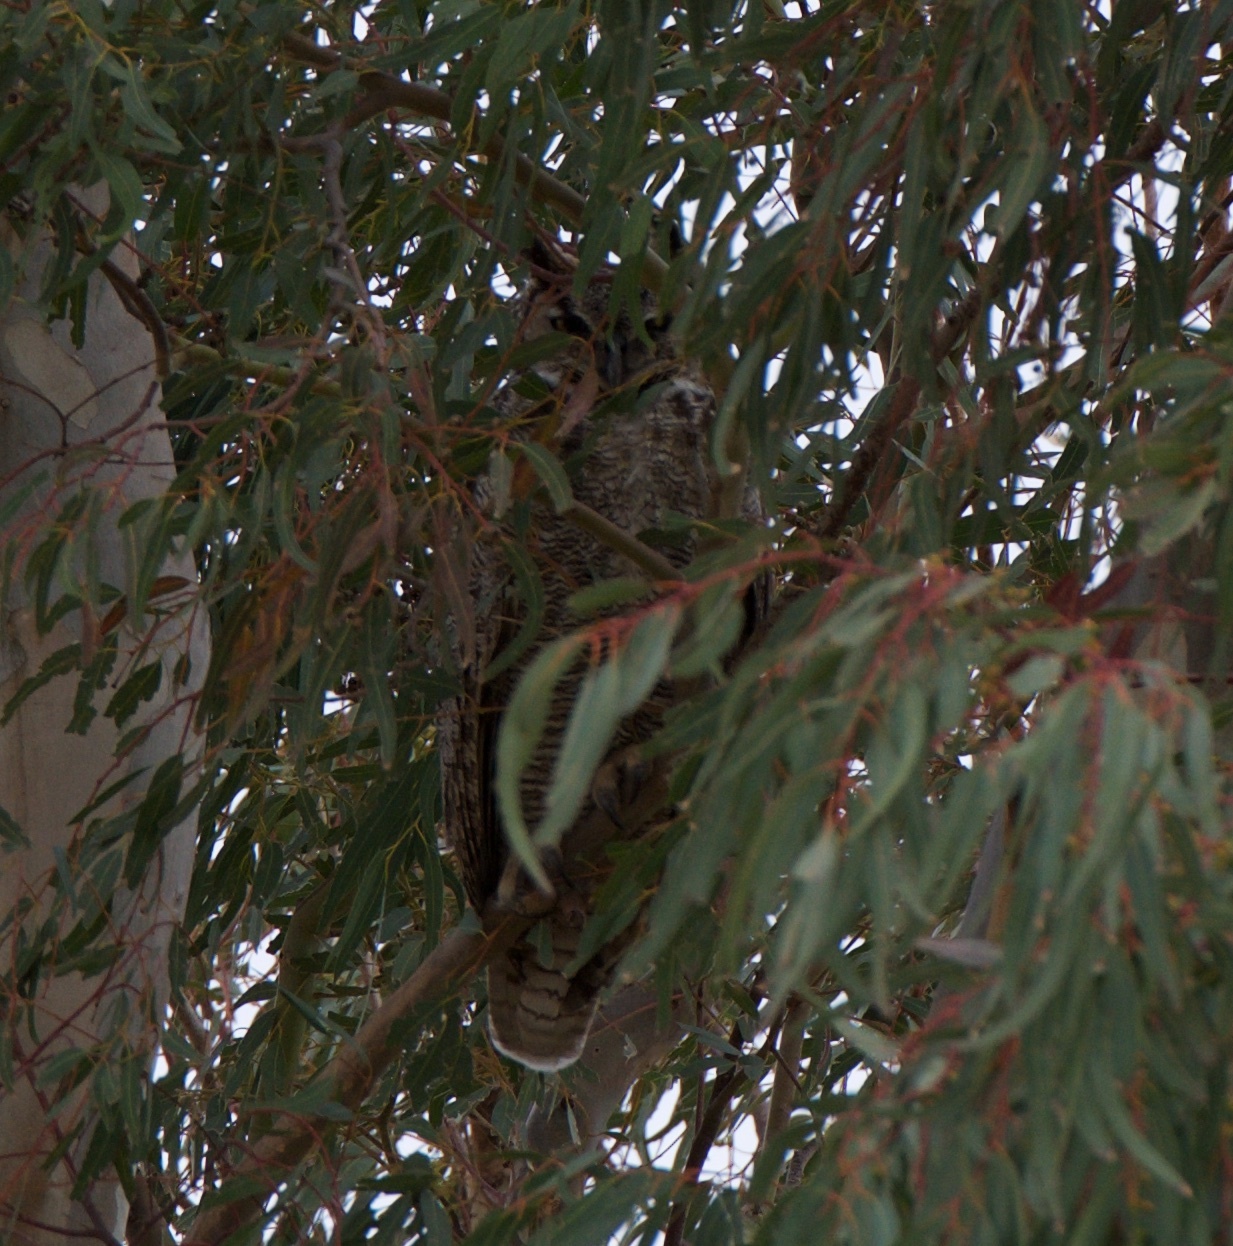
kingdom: Animalia
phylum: Chordata
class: Aves
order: Strigiformes
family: Strigidae
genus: Bubo
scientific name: Bubo virginianus
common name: Great horned owl
